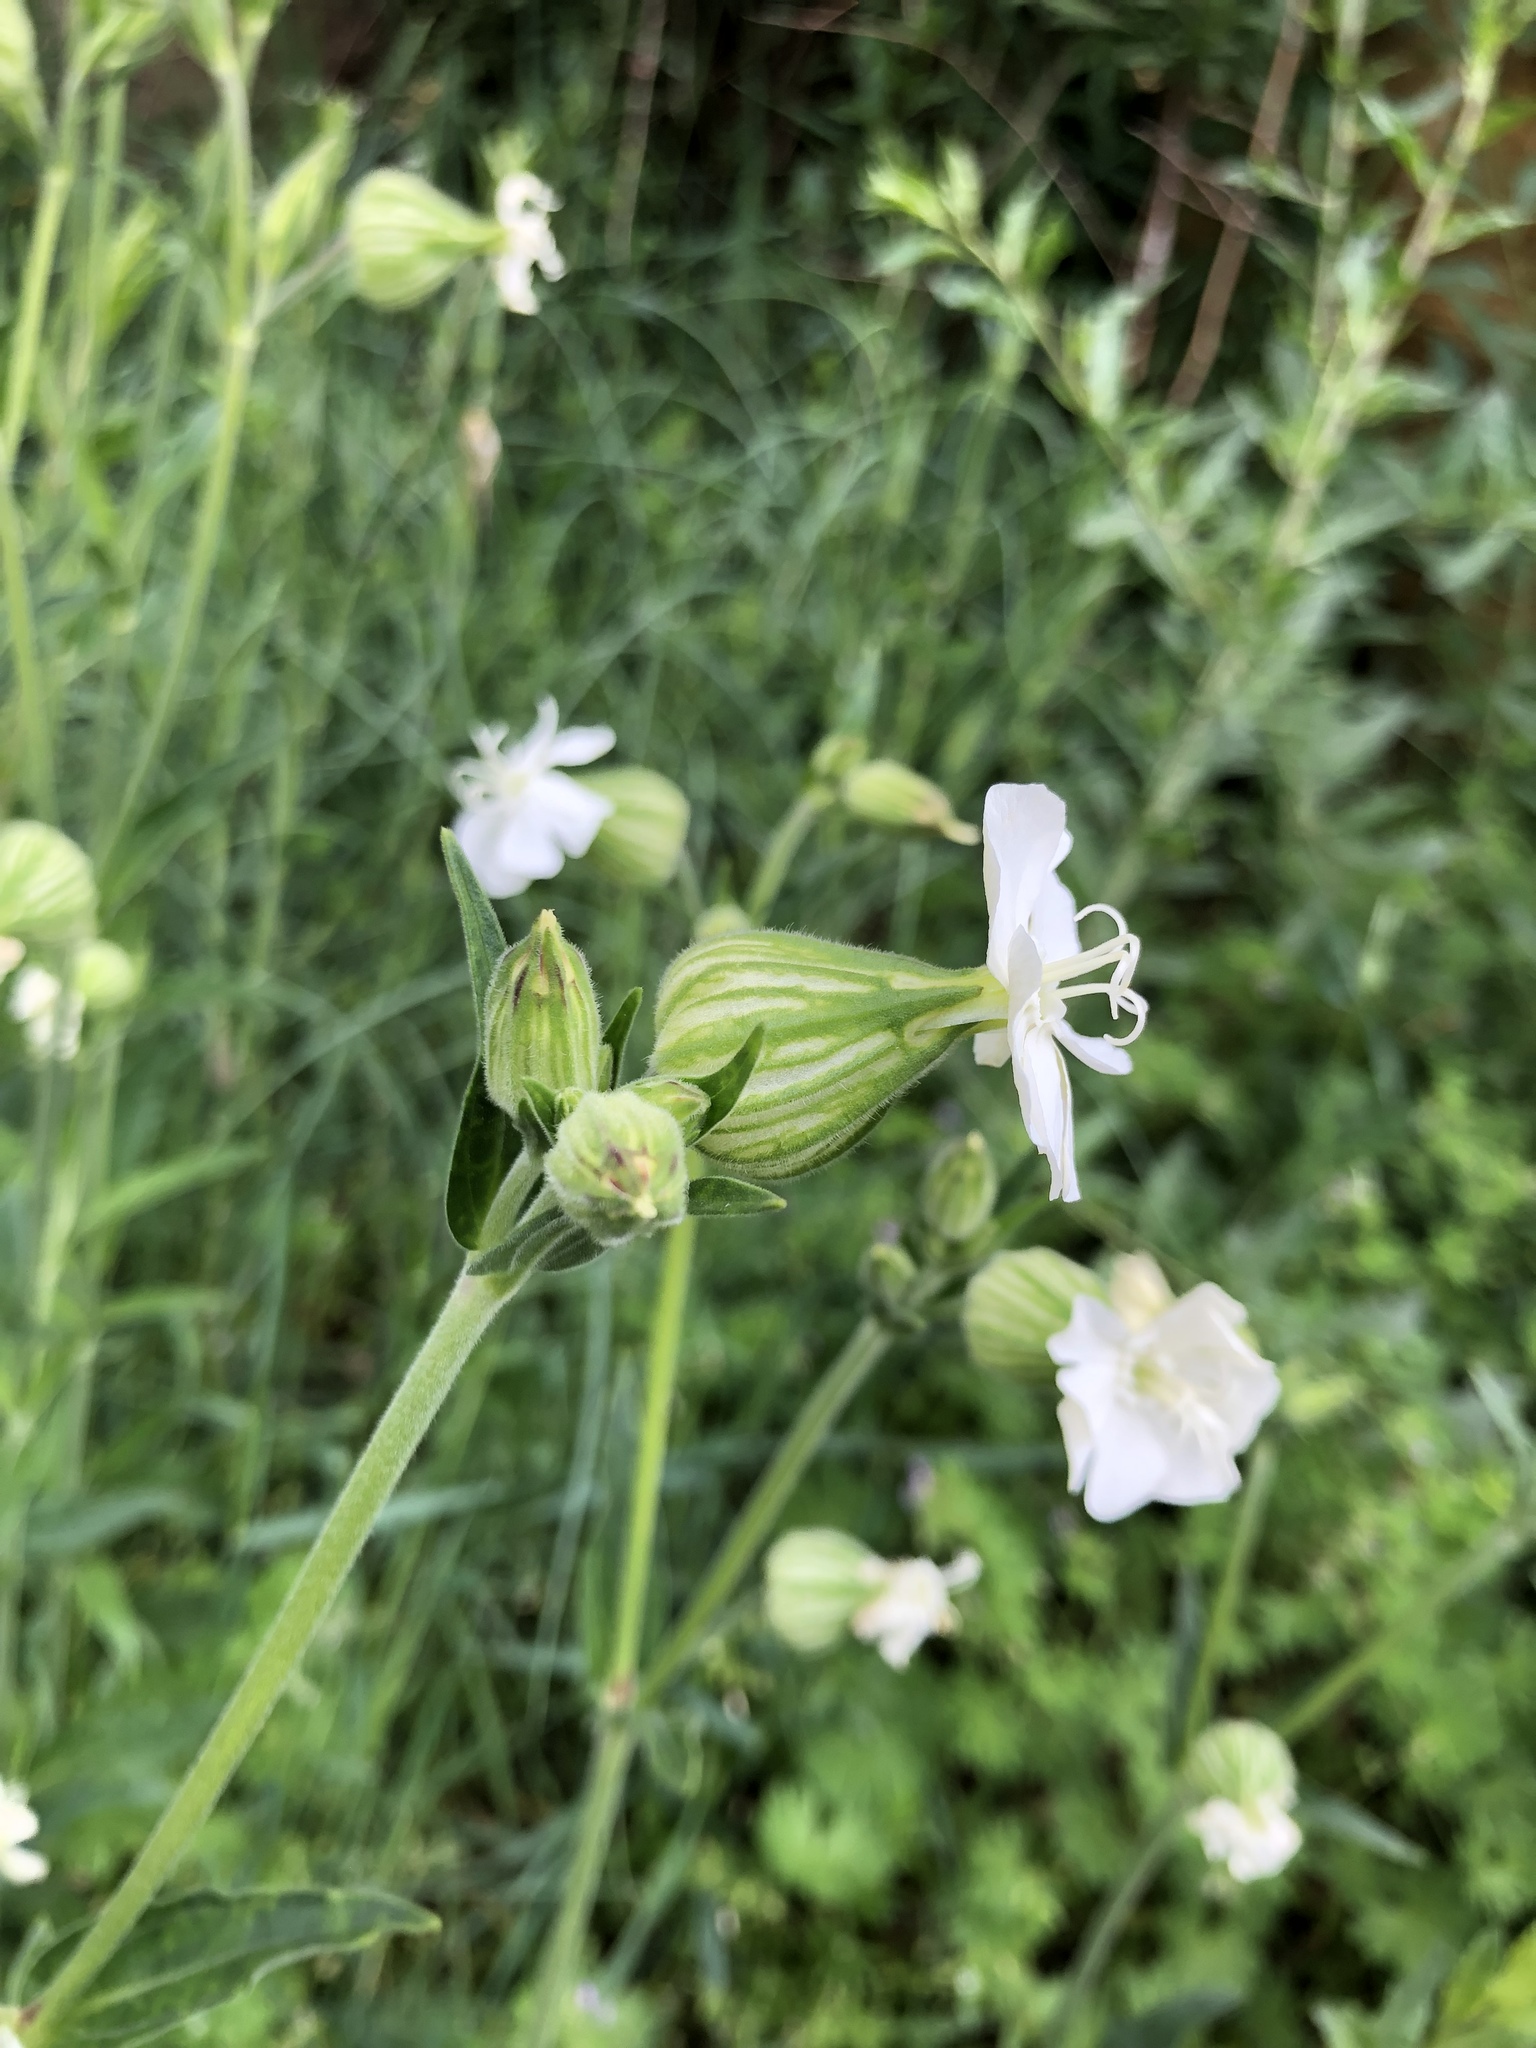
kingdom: Plantae
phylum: Tracheophyta
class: Magnoliopsida
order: Caryophyllales
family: Caryophyllaceae
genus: Silene
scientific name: Silene latifolia
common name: White campion
